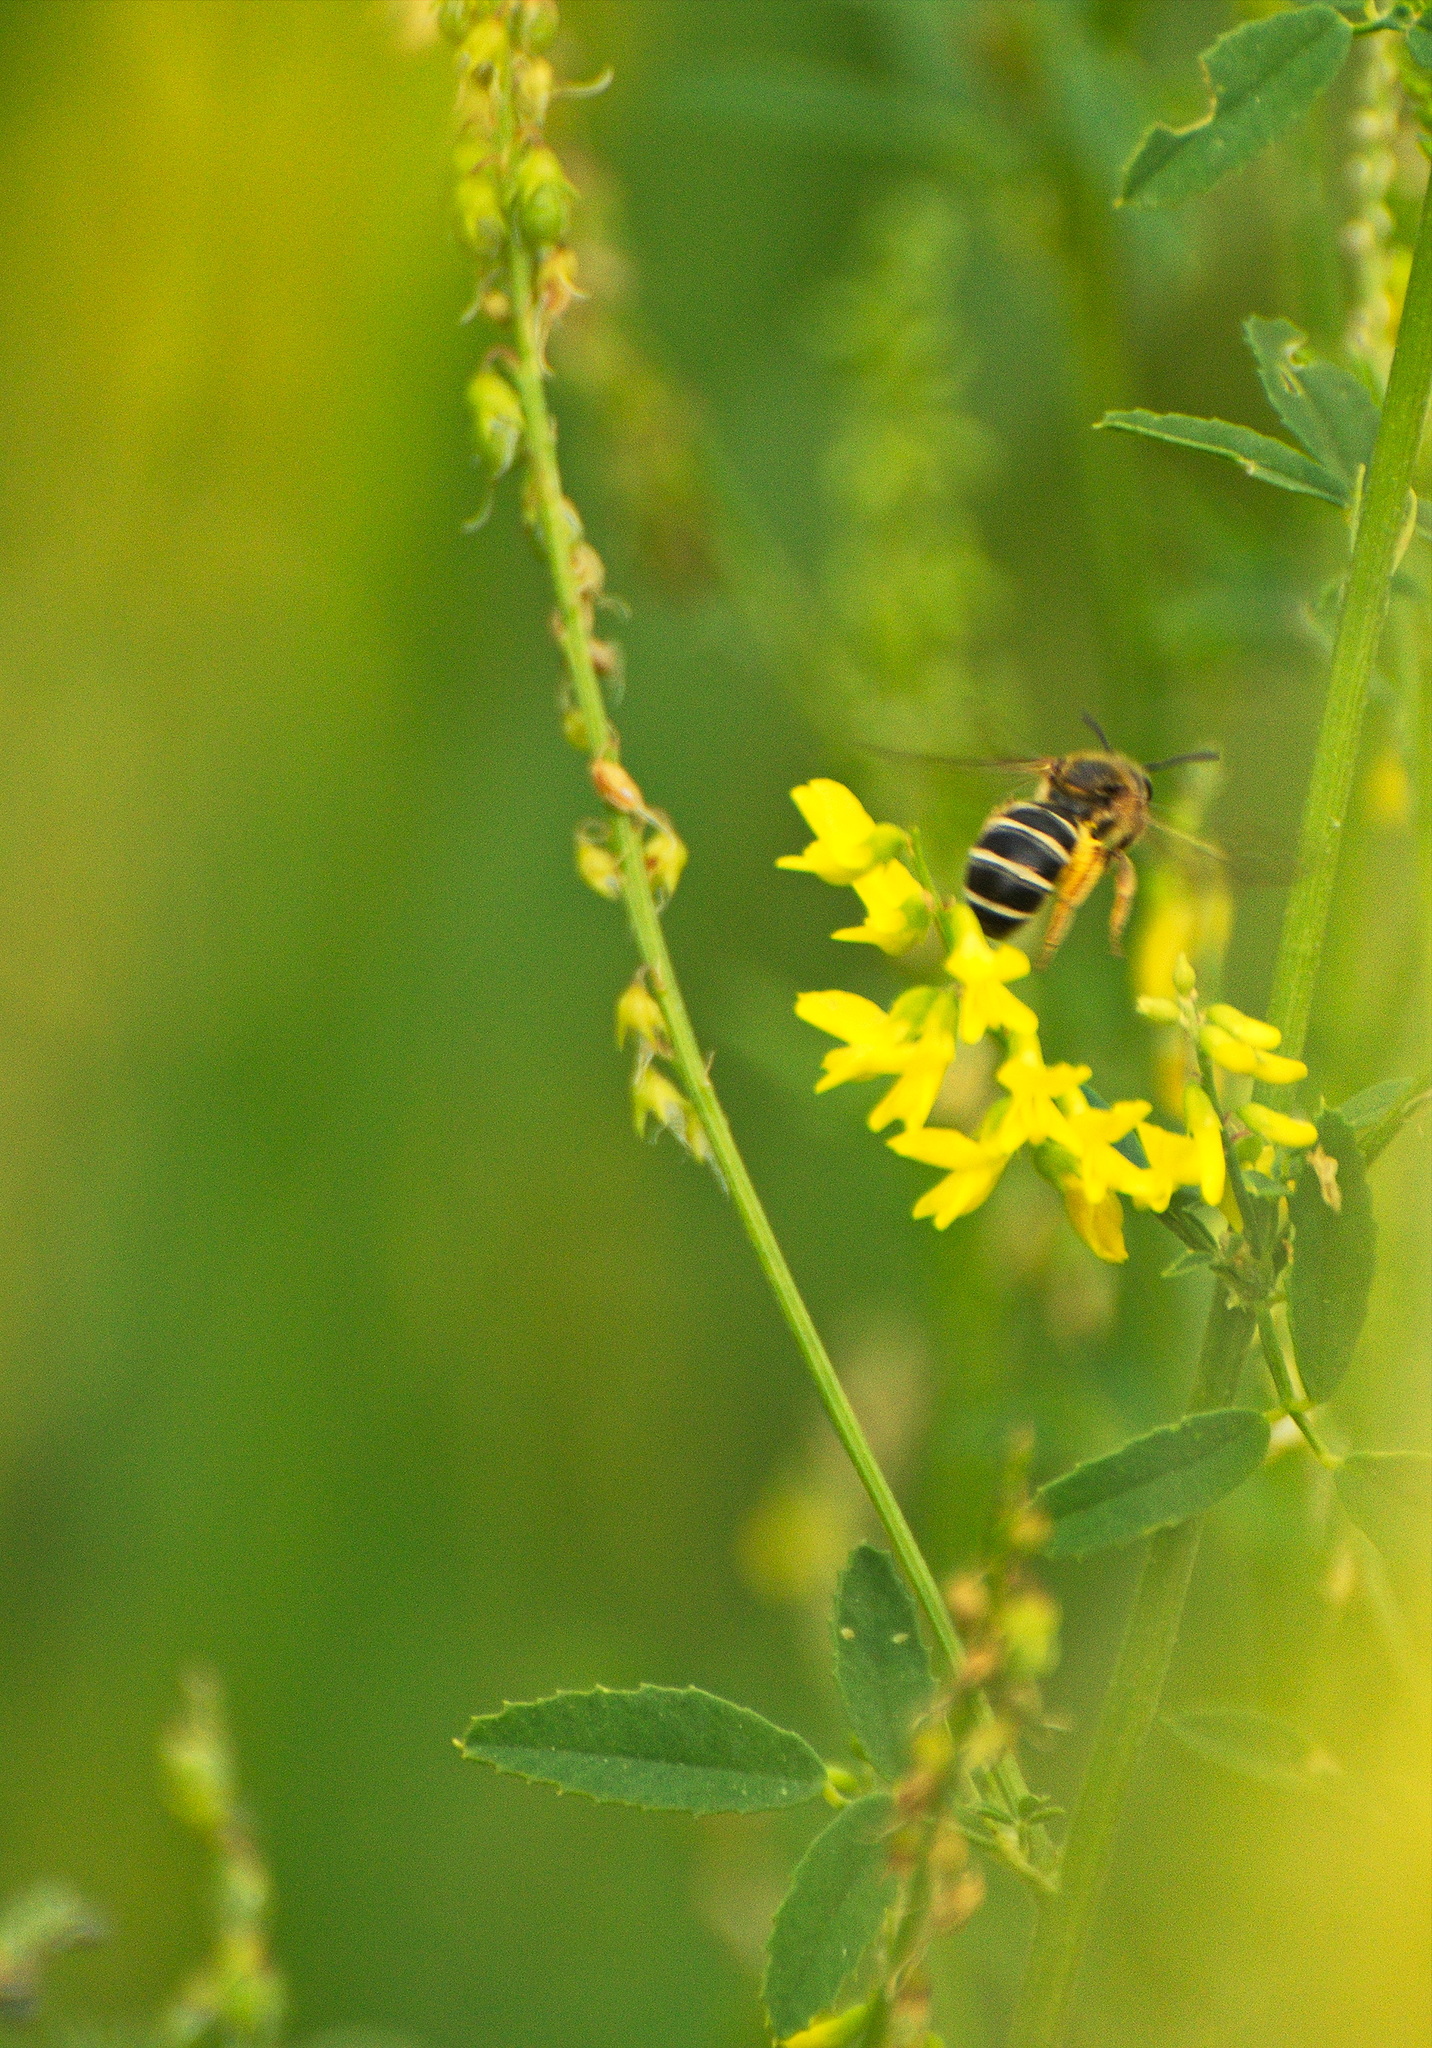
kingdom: Animalia
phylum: Arthropoda
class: Insecta
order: Hymenoptera
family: Halictidae
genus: Halictus
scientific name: Halictus rubicundus
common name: Orange-legged furrow bee
